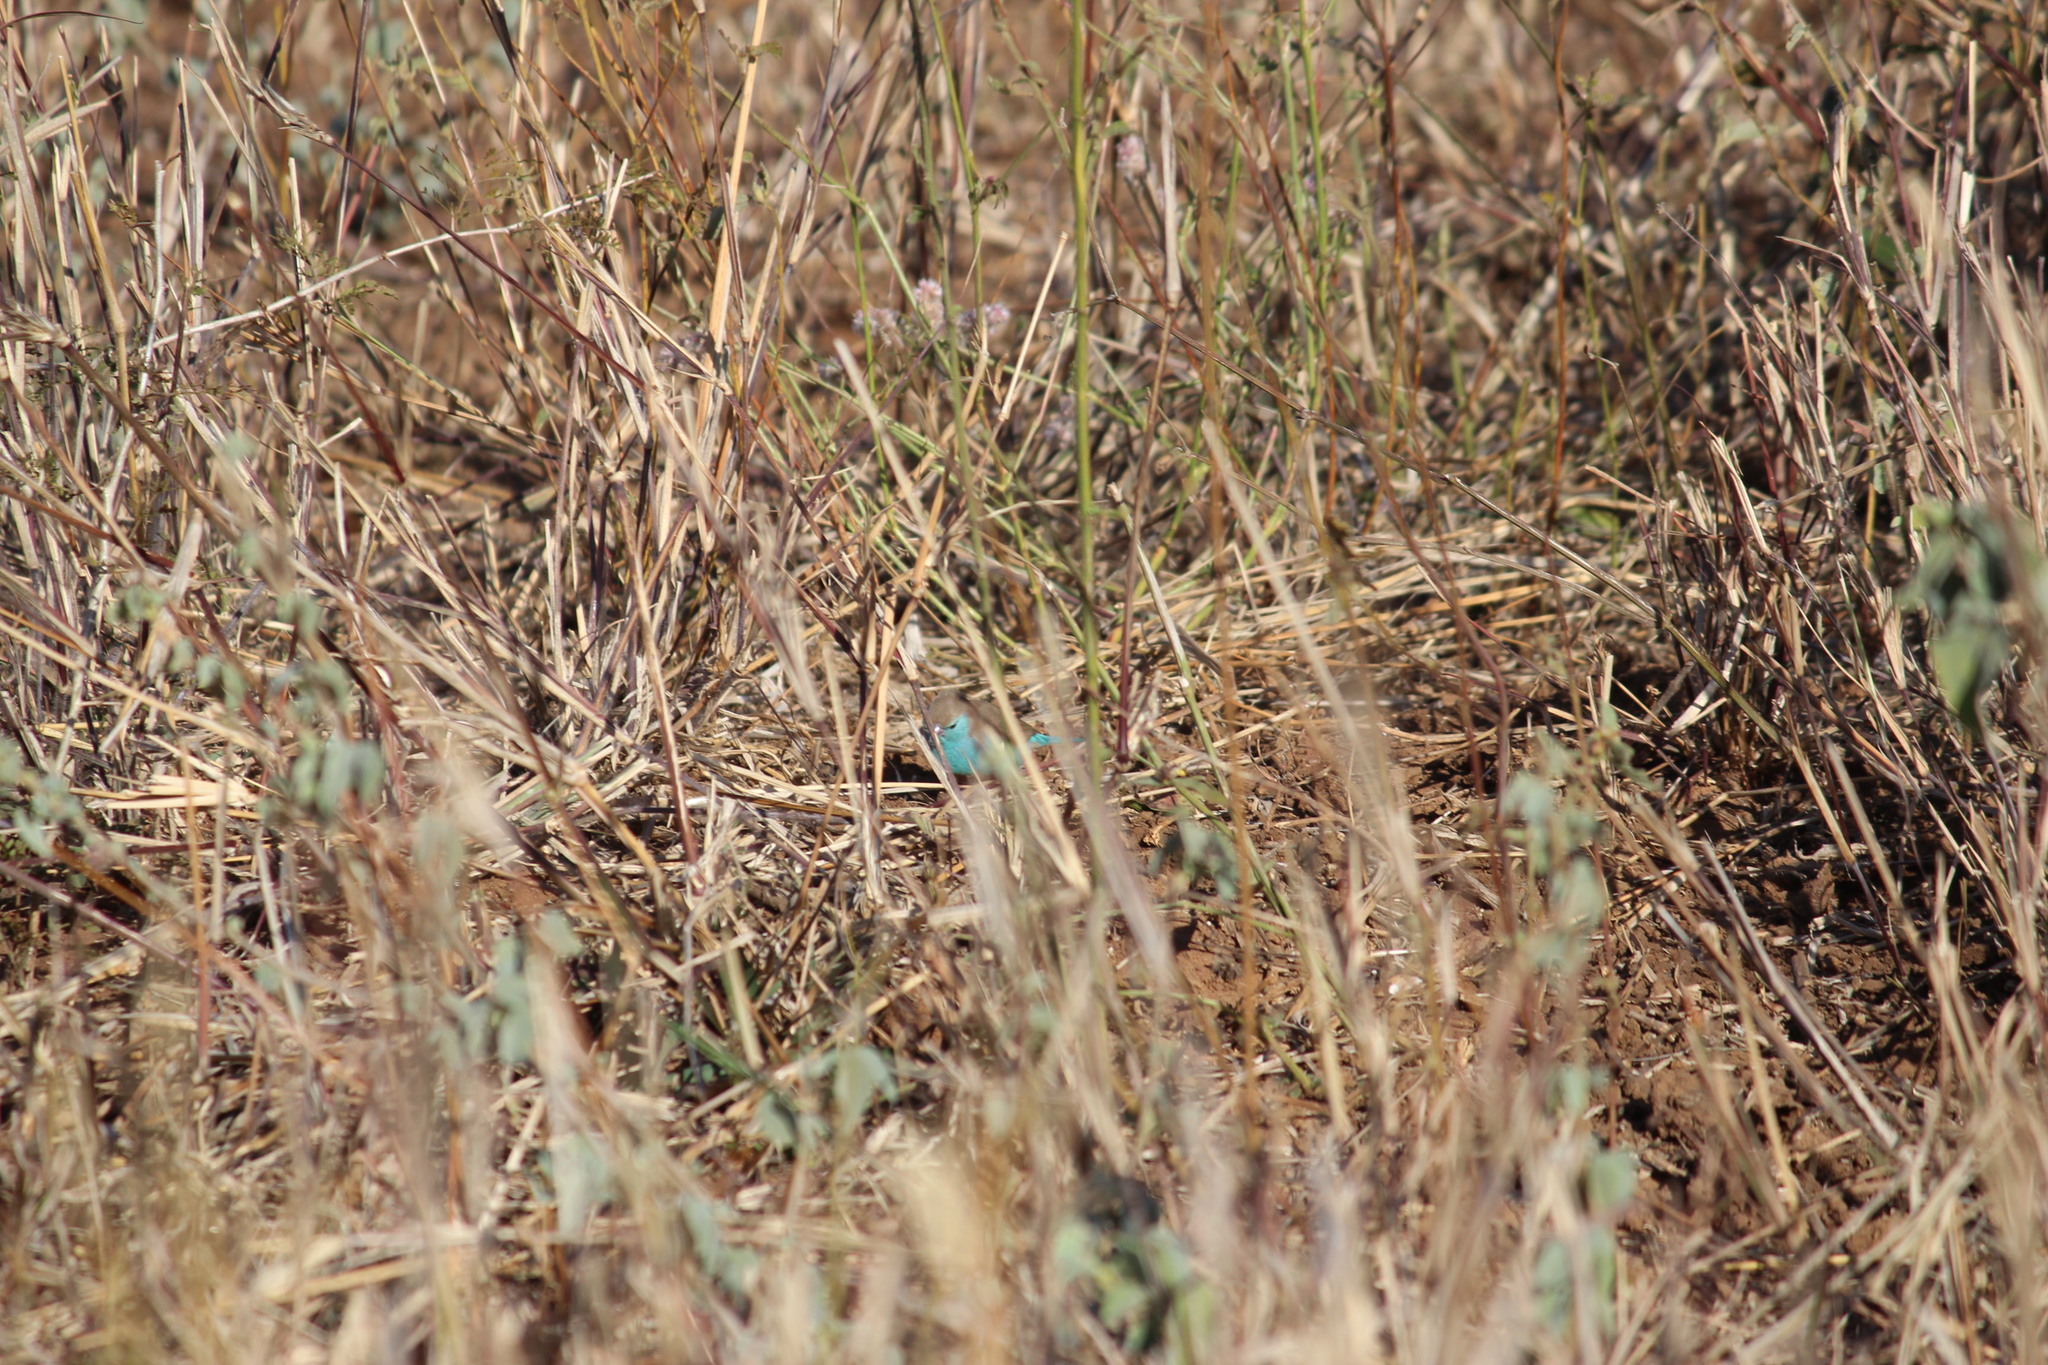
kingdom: Animalia
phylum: Chordata
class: Aves
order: Passeriformes
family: Estrildidae
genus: Uraeginthus
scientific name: Uraeginthus angolensis
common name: Blue waxbill
